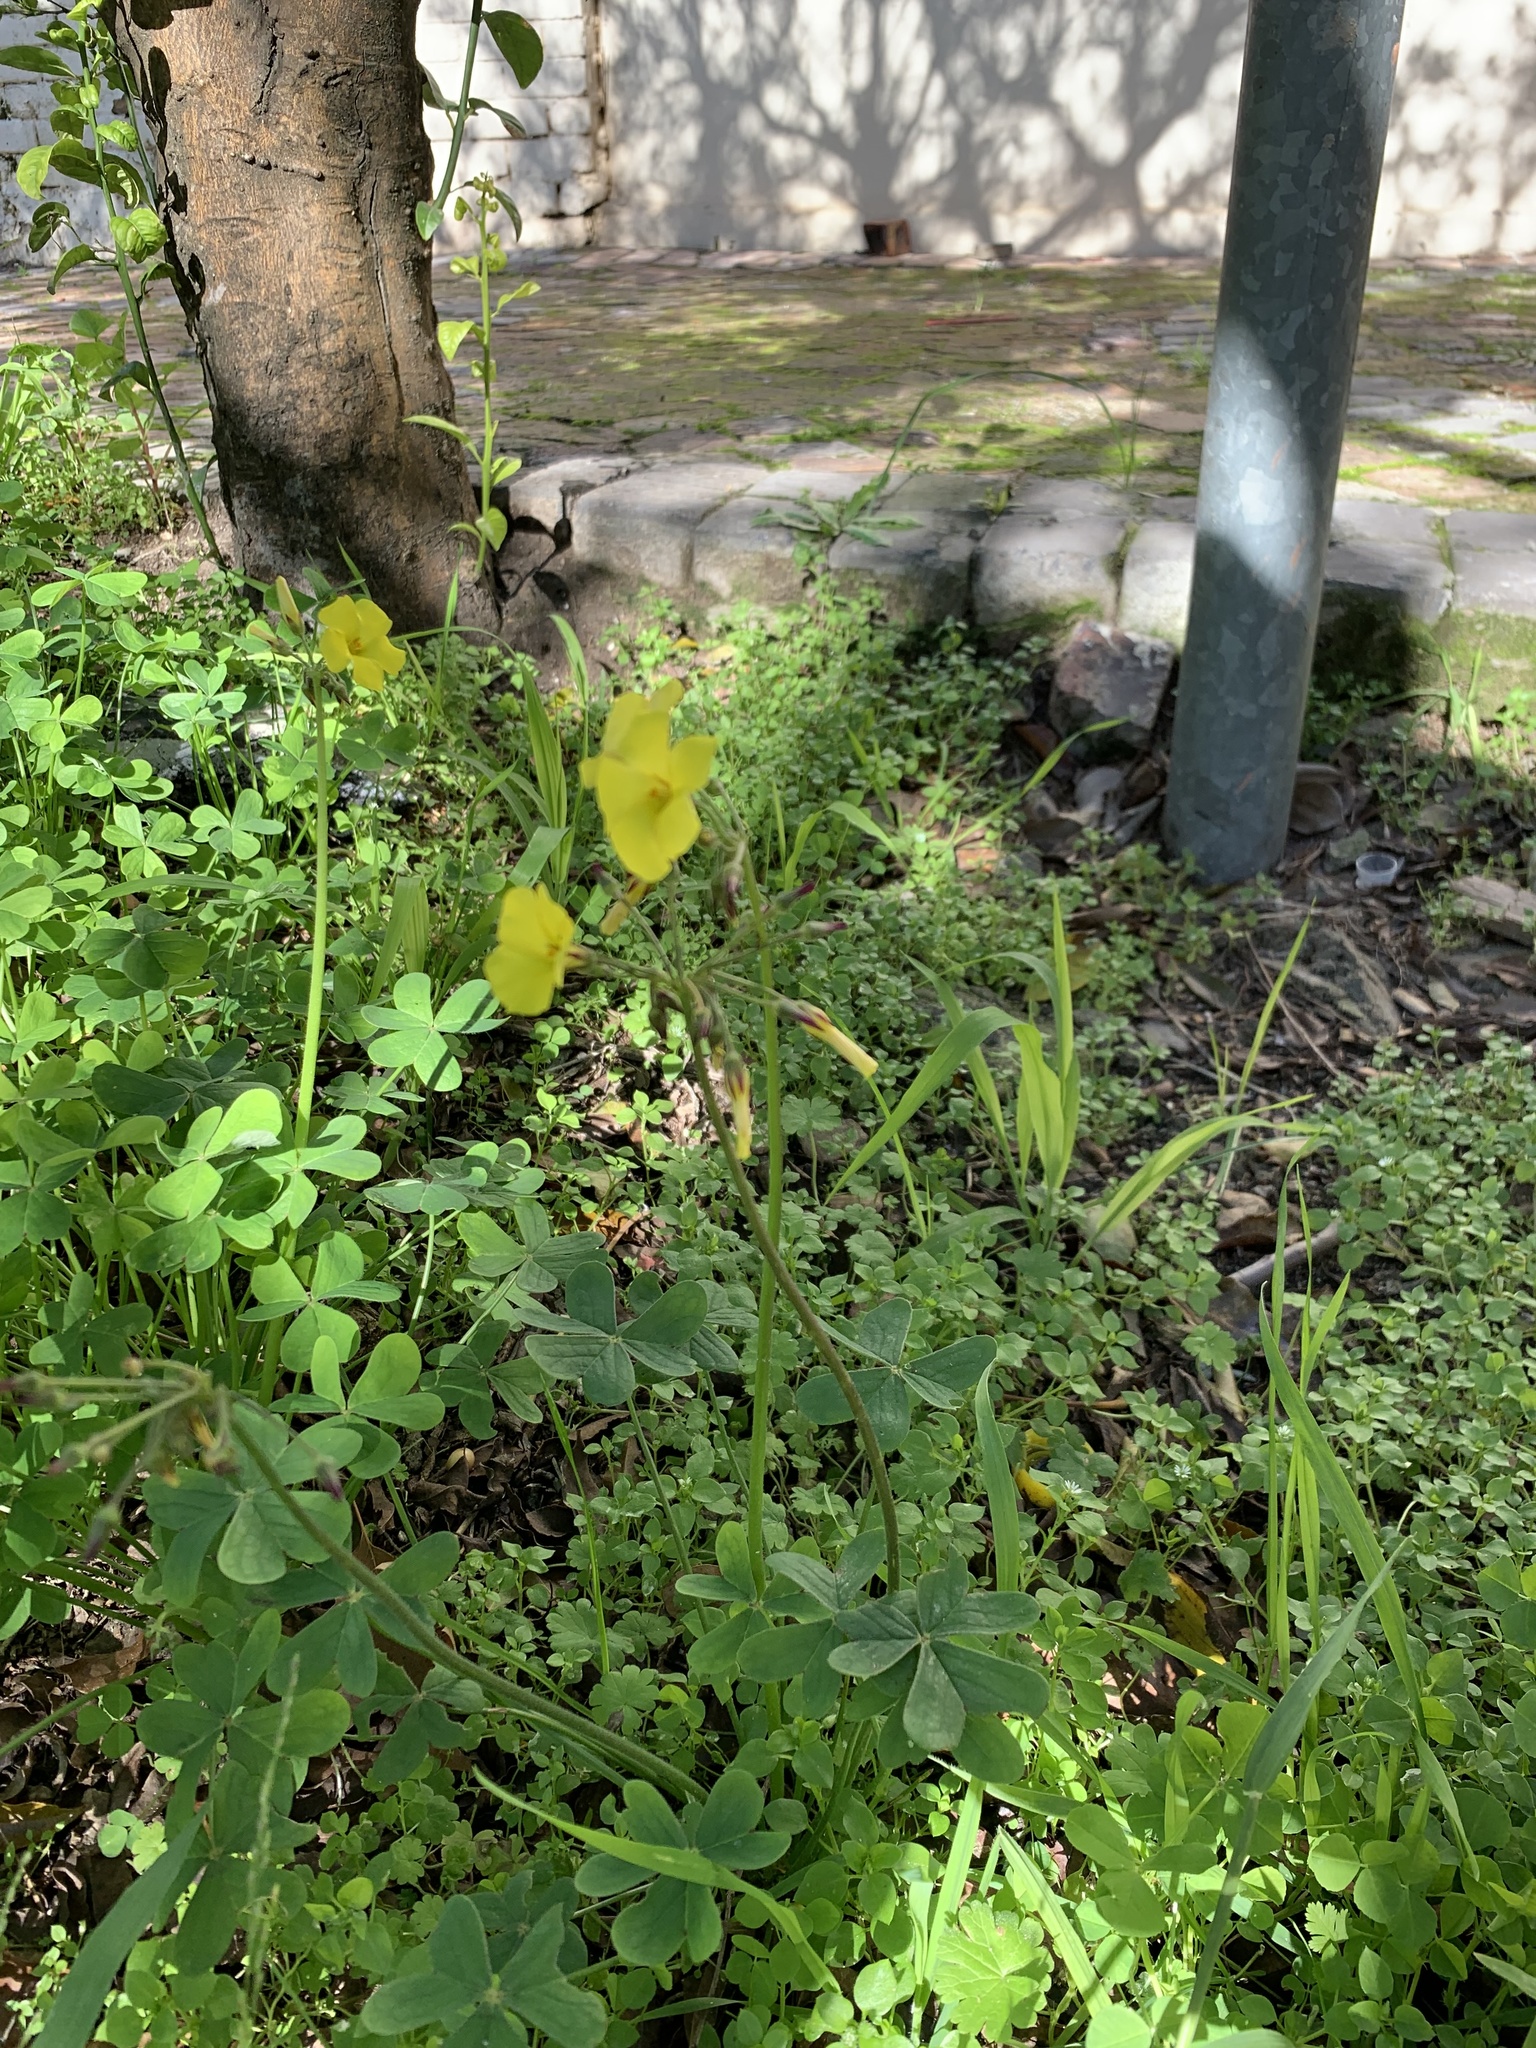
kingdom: Plantae
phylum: Tracheophyta
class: Magnoliopsida
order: Oxalidales
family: Oxalidaceae
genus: Oxalis
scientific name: Oxalis pes-caprae
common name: Bermuda-buttercup
